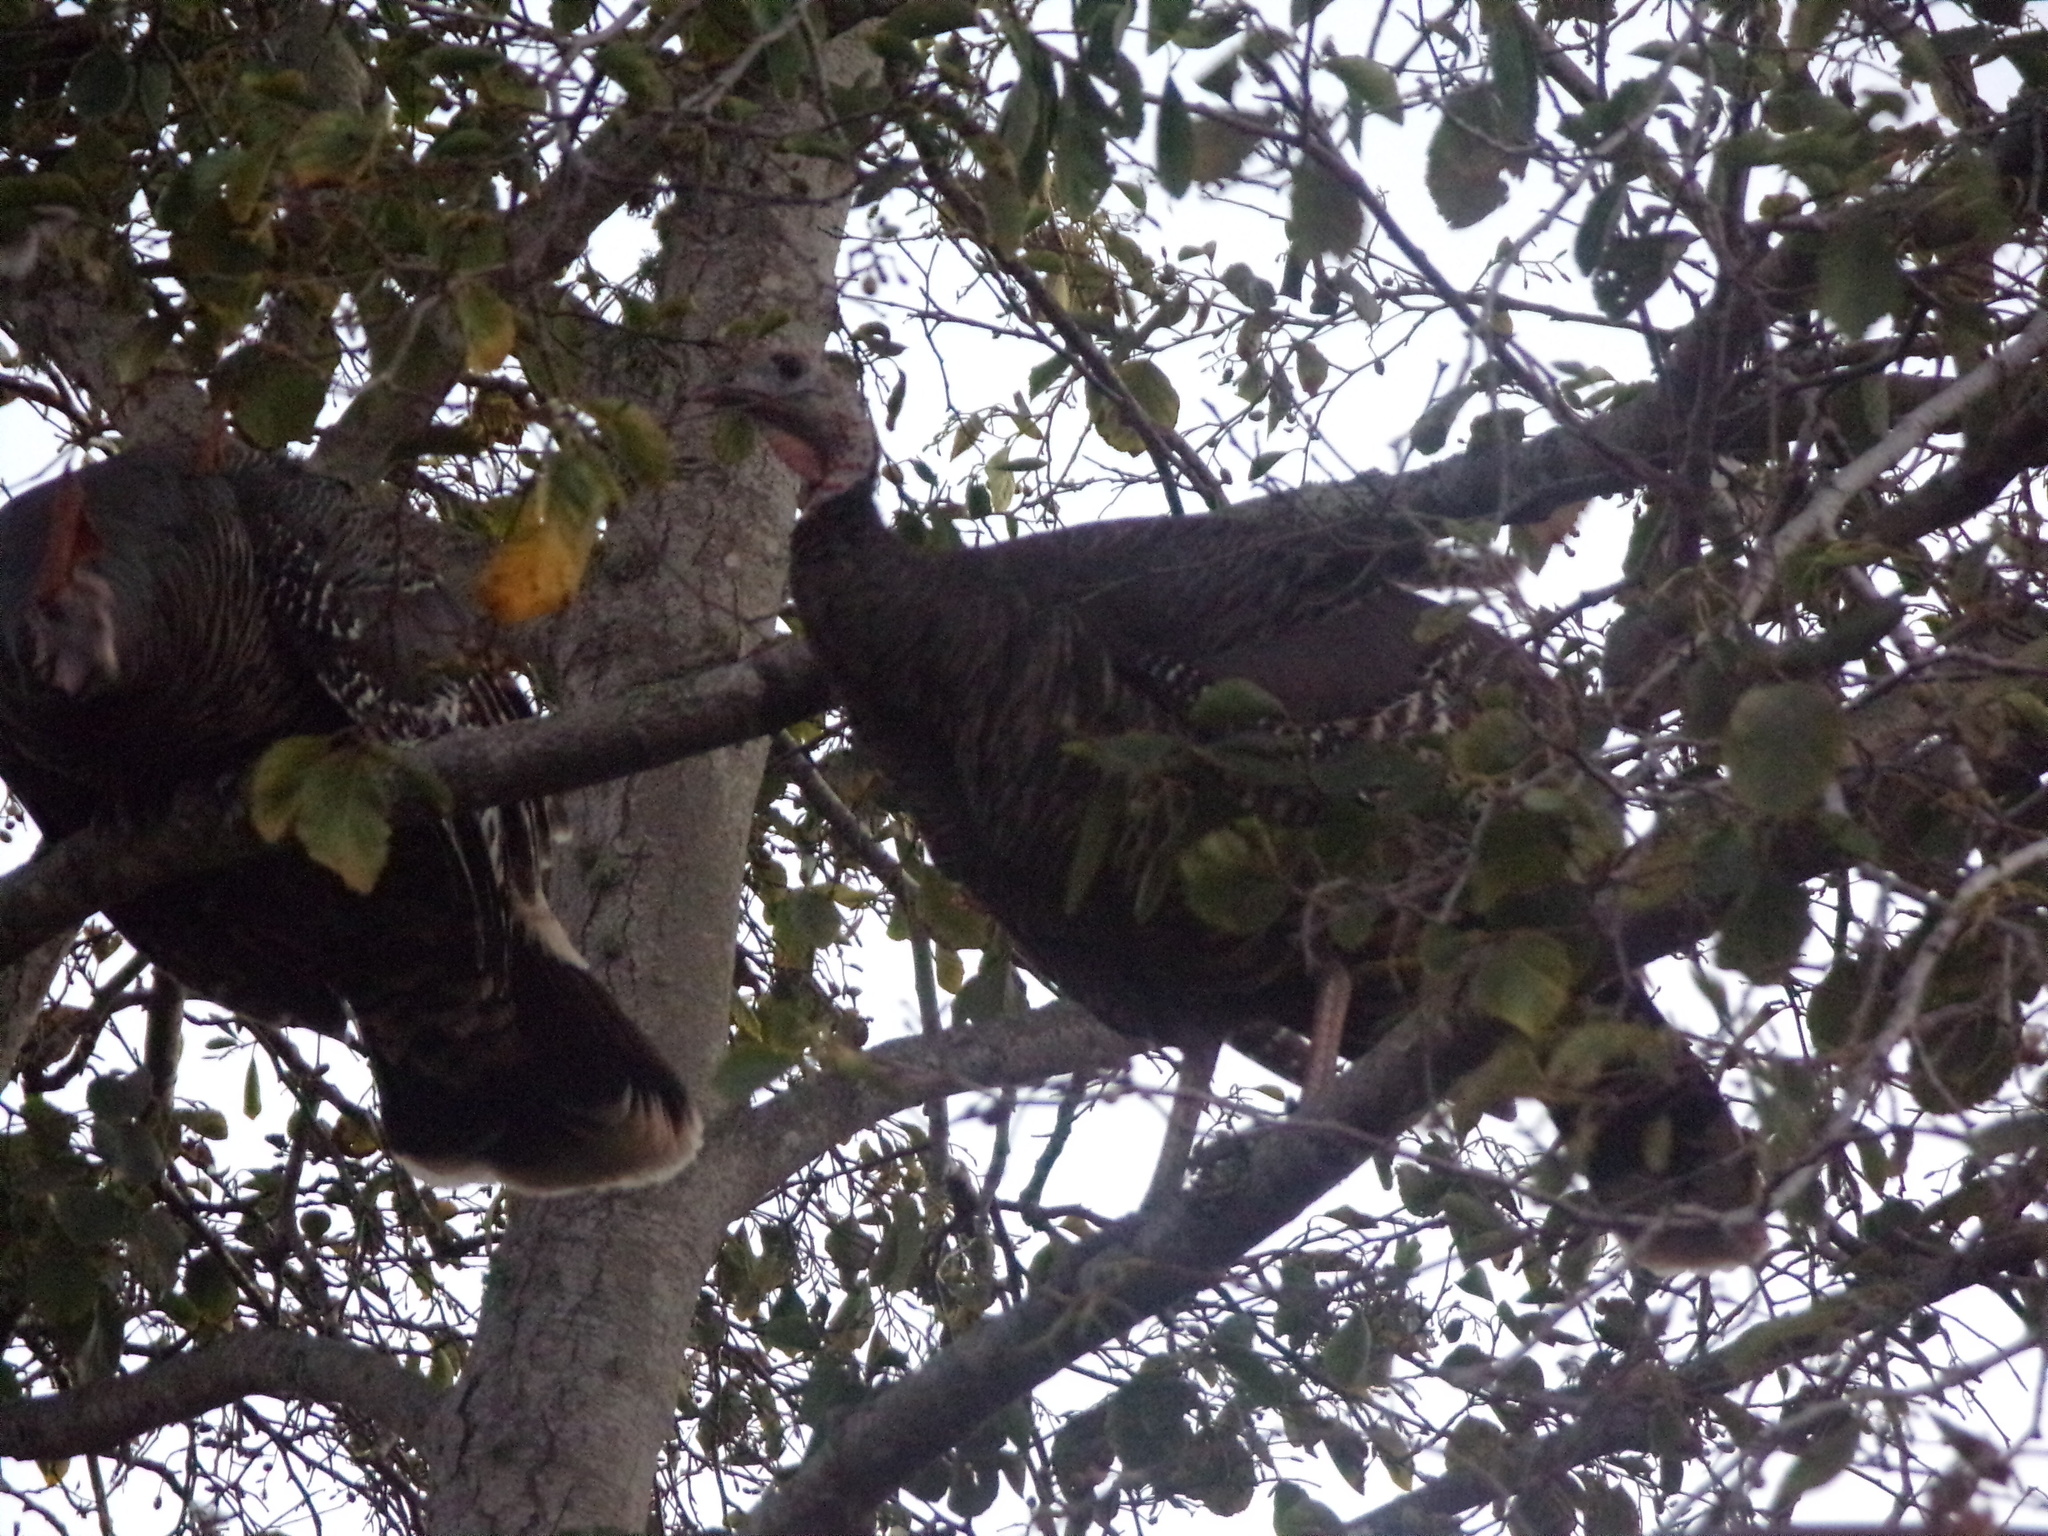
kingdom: Animalia
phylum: Chordata
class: Aves
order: Galliformes
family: Phasianidae
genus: Meleagris
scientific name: Meleagris gallopavo
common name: Wild turkey
